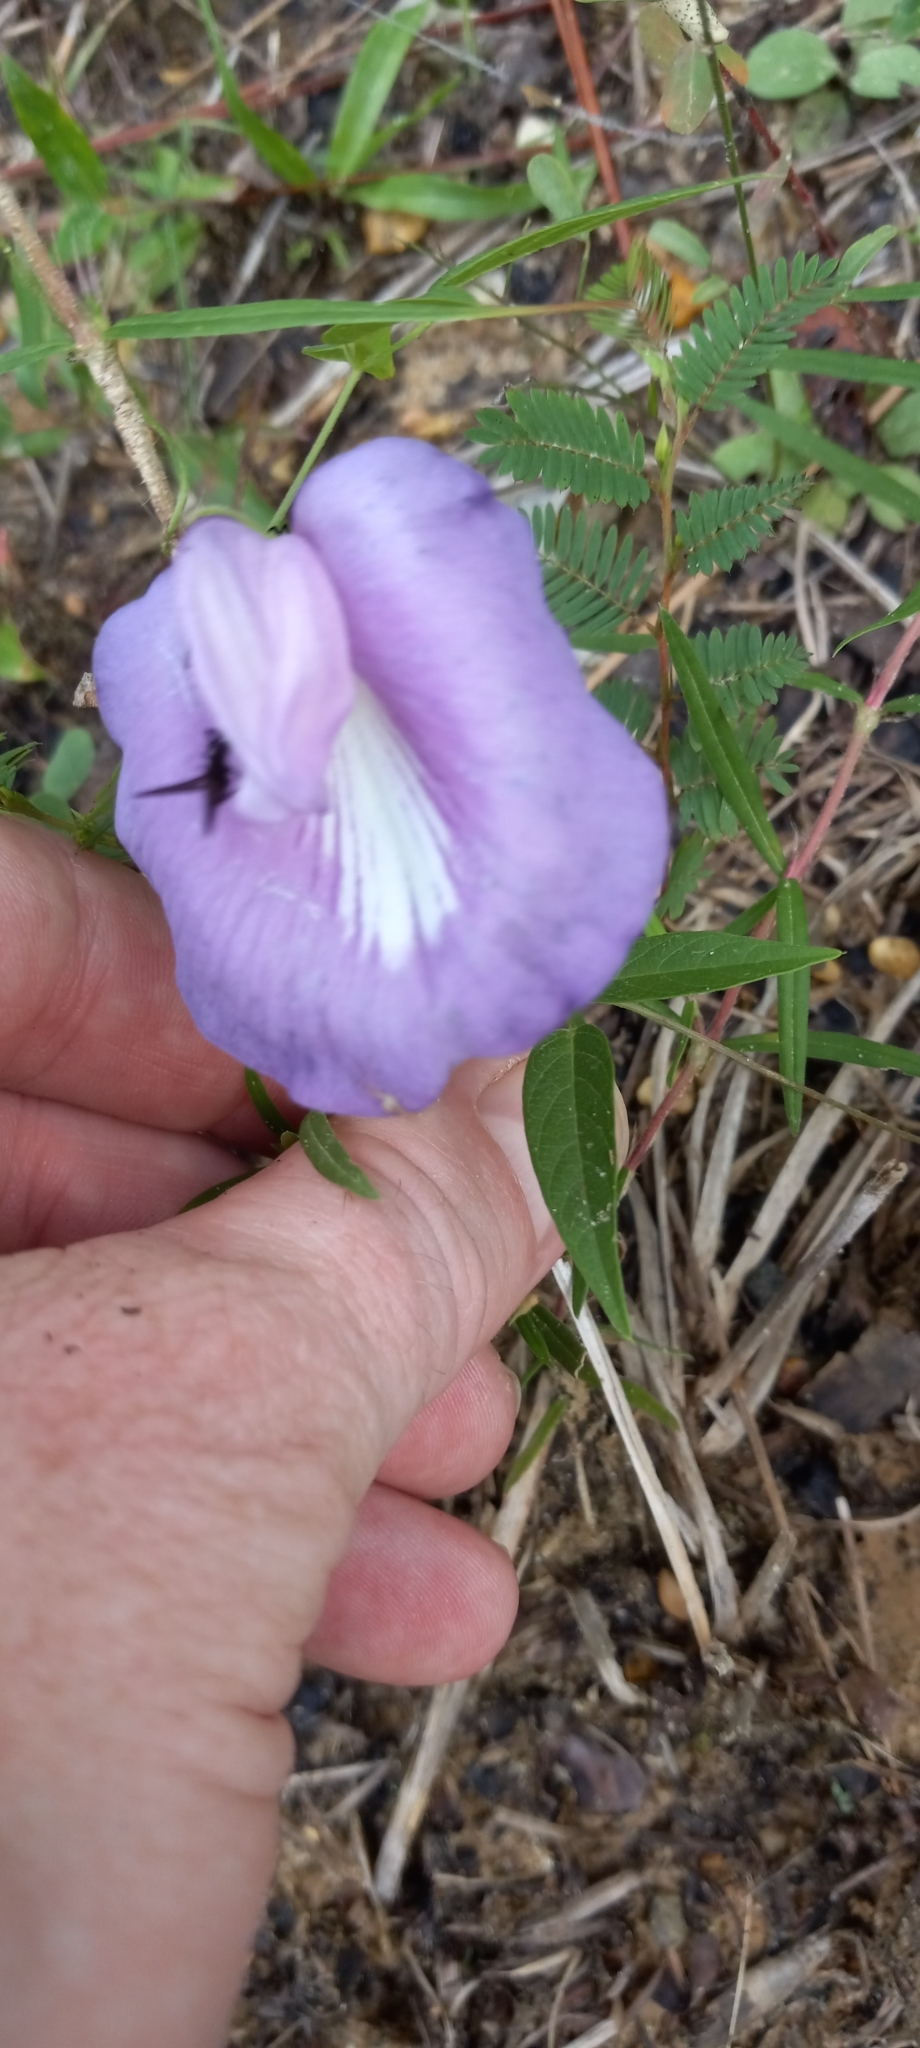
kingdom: Plantae
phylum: Tracheophyta
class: Magnoliopsida
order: Fabales
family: Fabaceae
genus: Centrosema
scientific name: Centrosema virginianum
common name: Butterfly-pea
